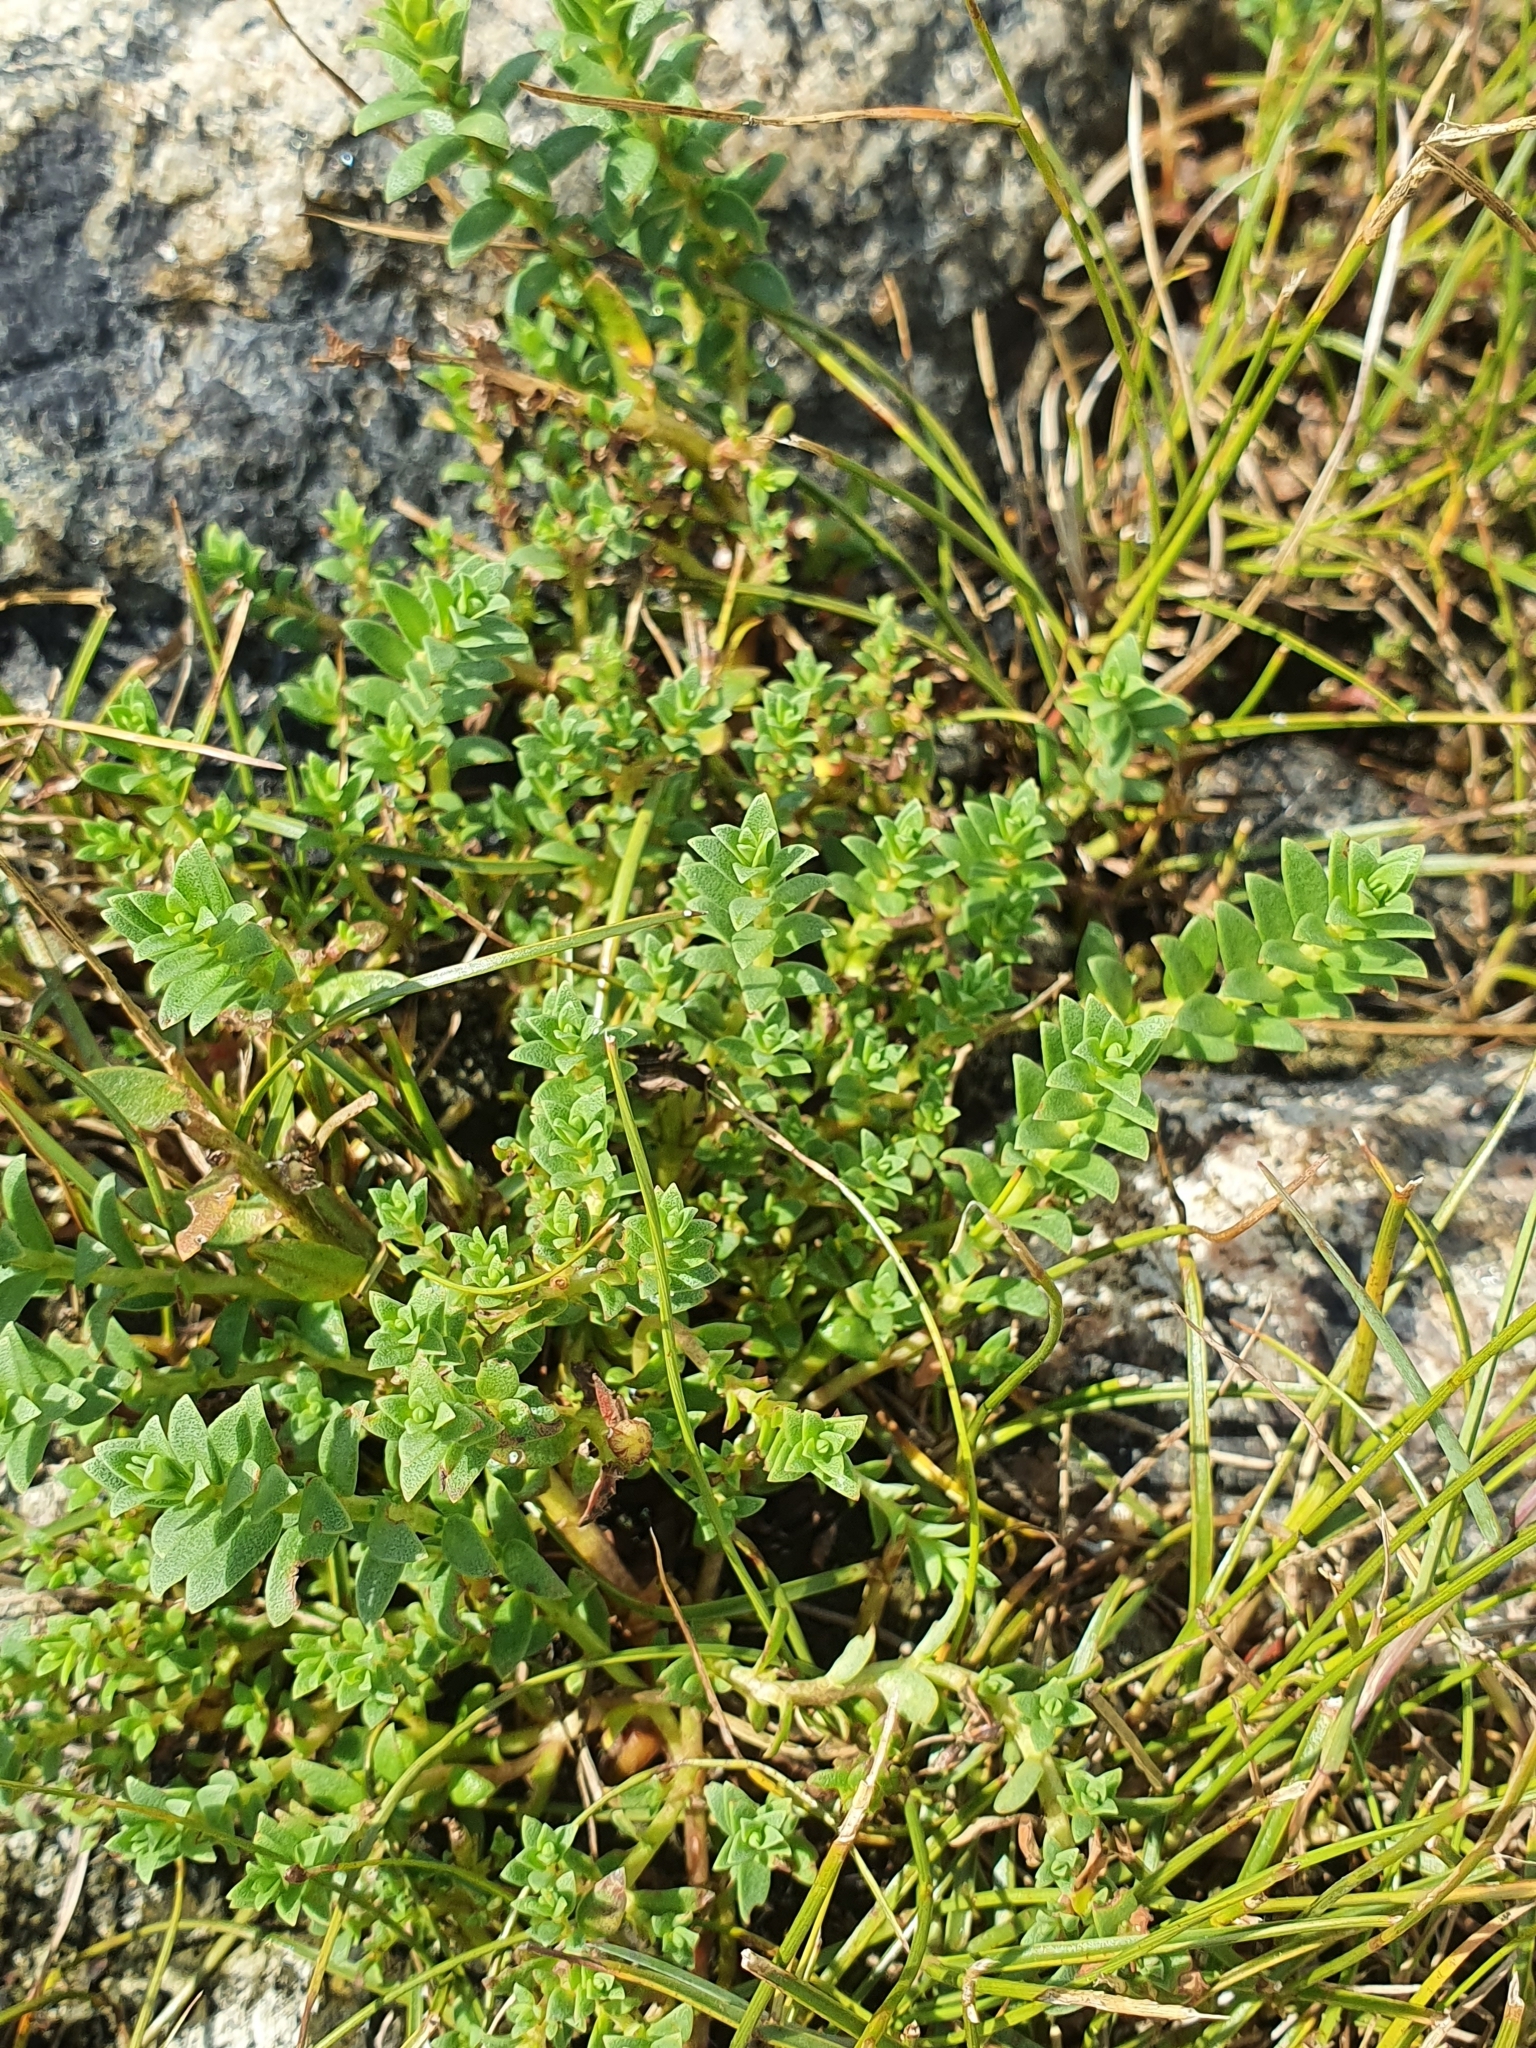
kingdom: Plantae
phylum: Tracheophyta
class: Magnoliopsida
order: Ericales
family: Primulaceae
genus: Lysimachia
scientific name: Lysimachia maritima
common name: Sea milkwort
